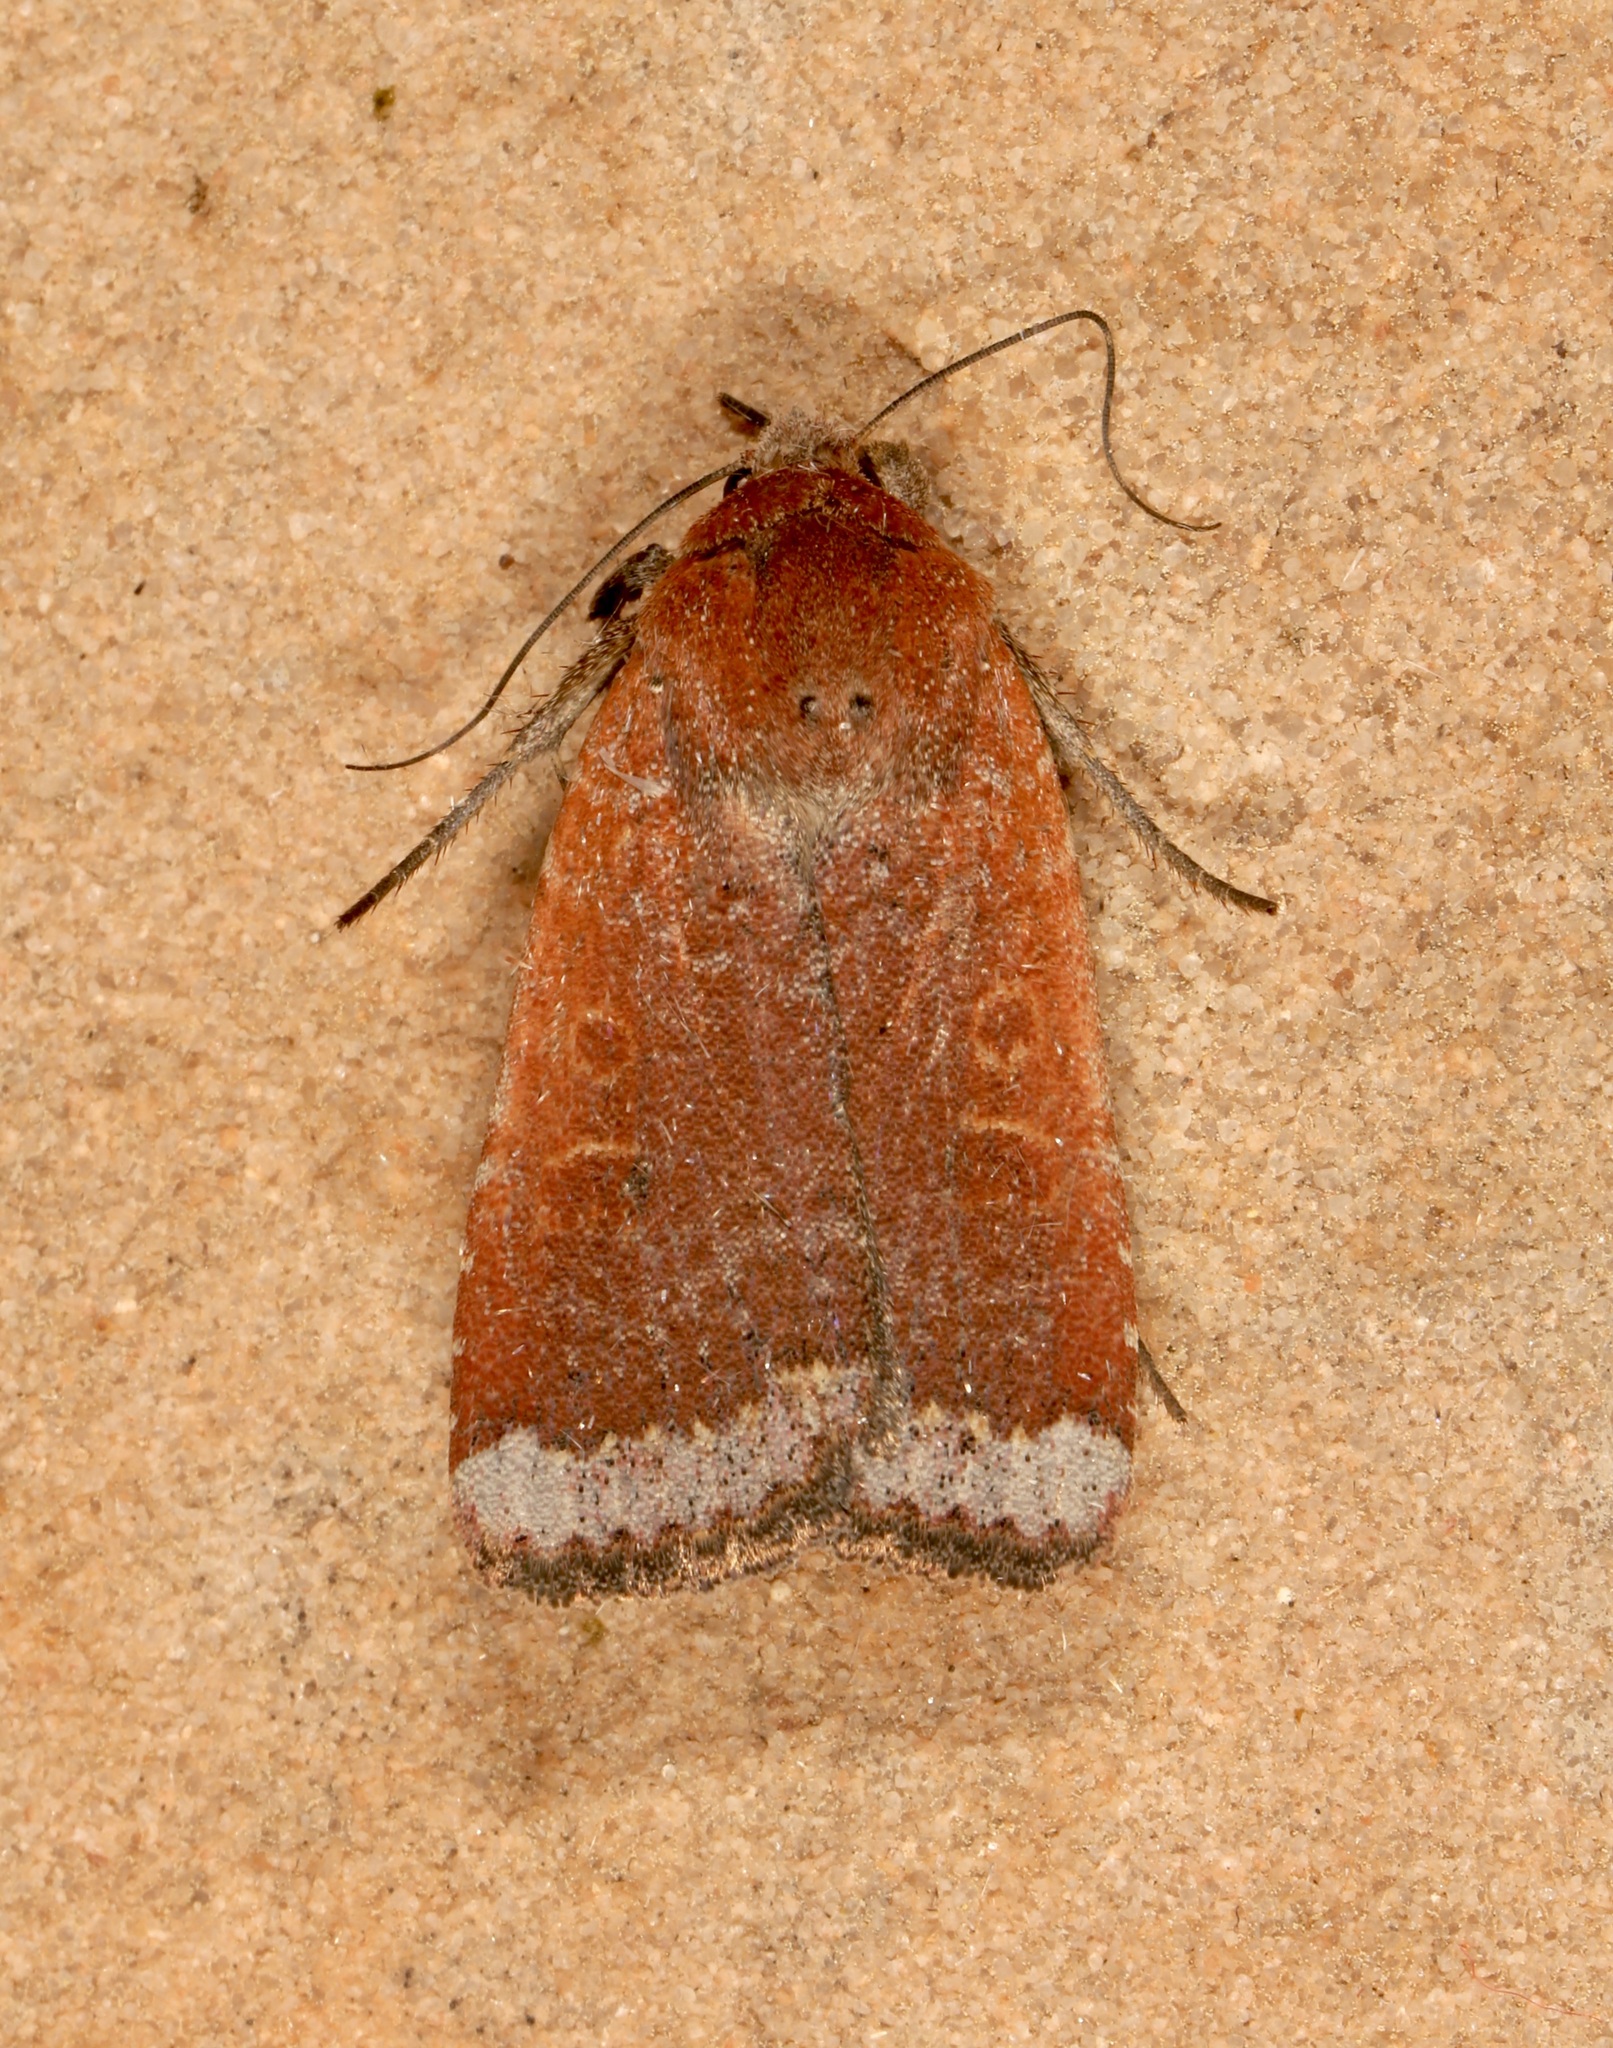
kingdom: Animalia
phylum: Arthropoda
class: Insecta
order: Lepidoptera
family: Noctuidae
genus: Abagrotis
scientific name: Abagrotis nefascia
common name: Coastal heathland cutworm
